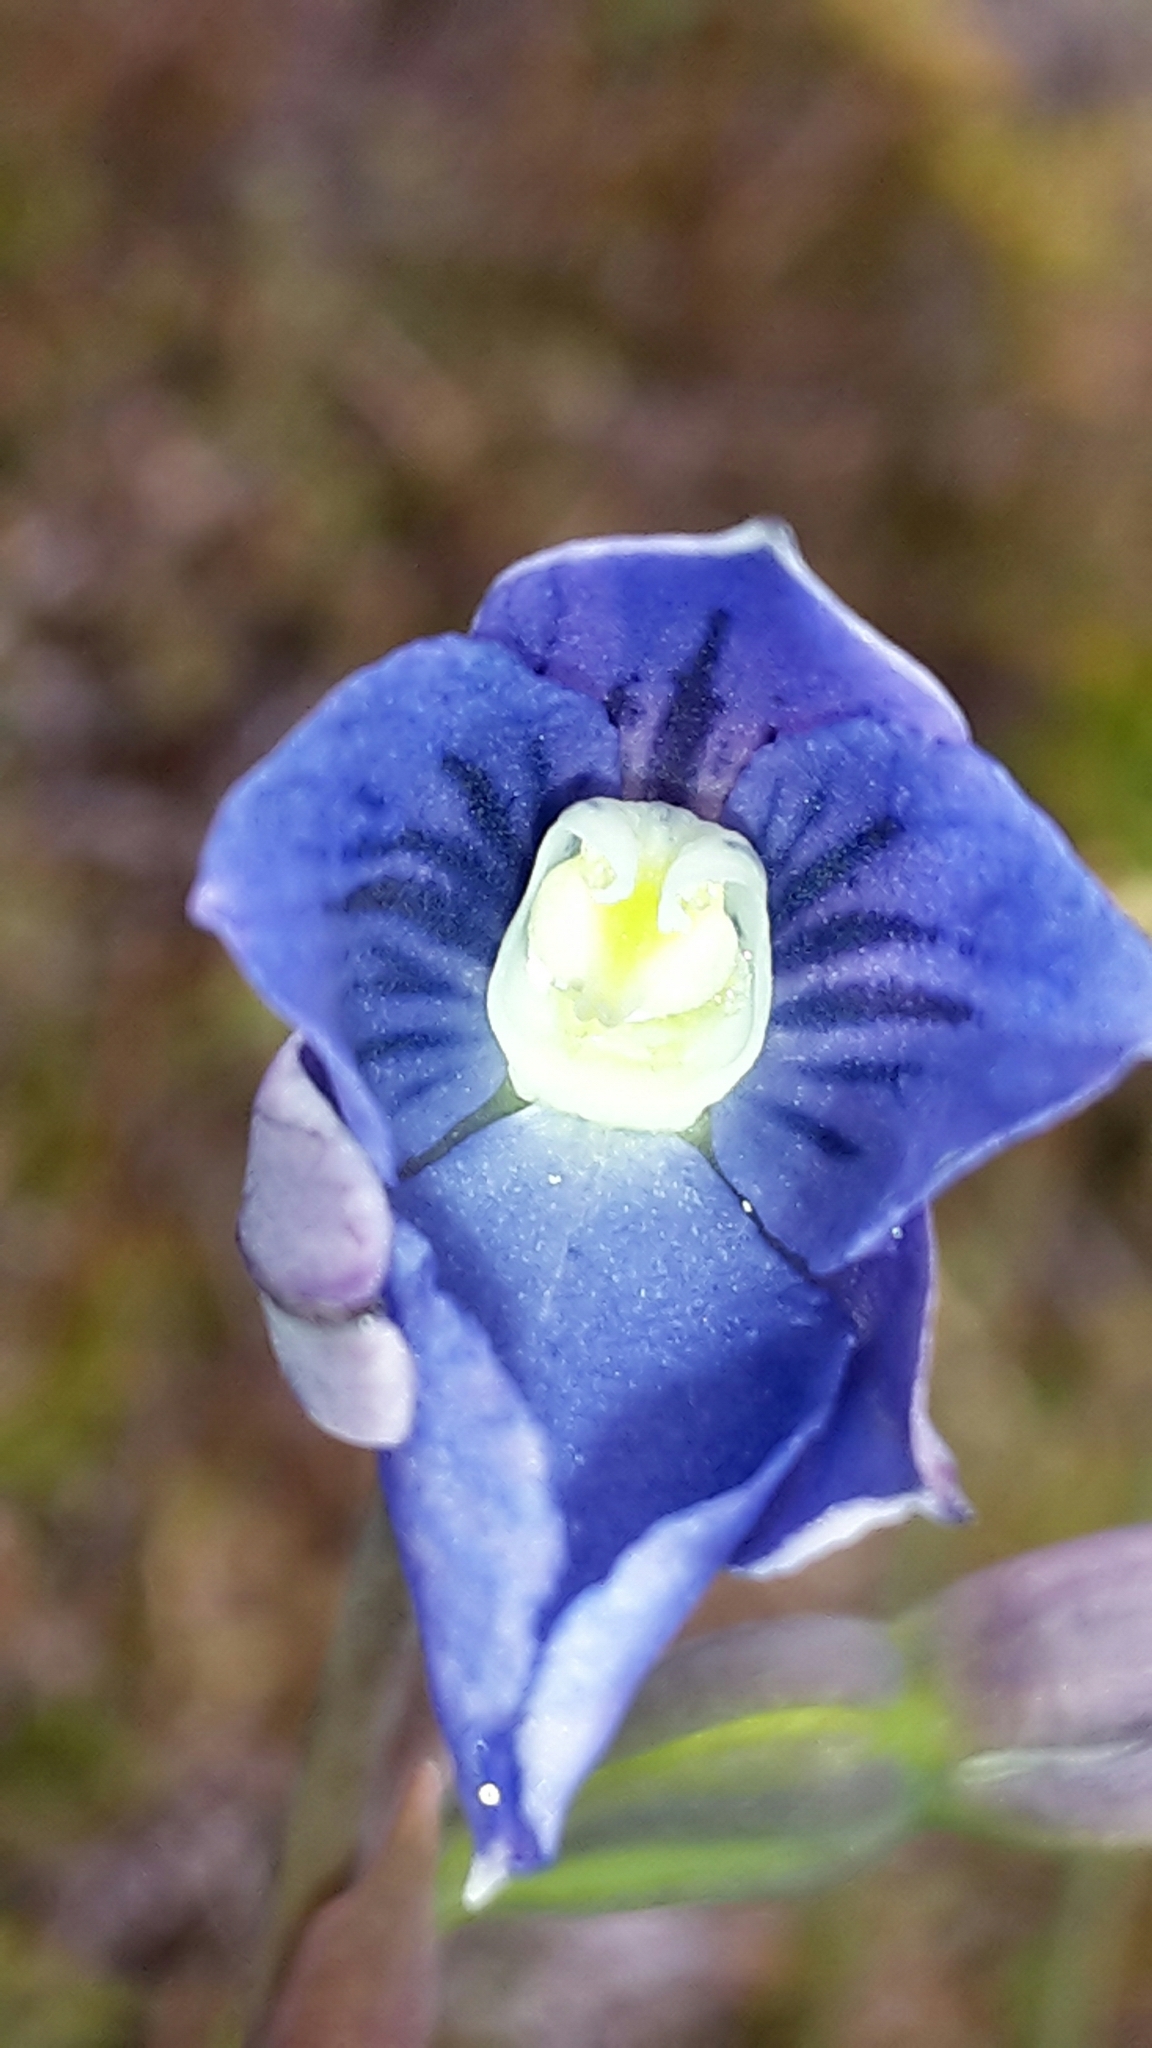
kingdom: Plantae
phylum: Tracheophyta
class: Liliopsida
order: Asparagales
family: Orchidaceae
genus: Thelymitra
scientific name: Thelymitra cyanea
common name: Blue sun-orchid
